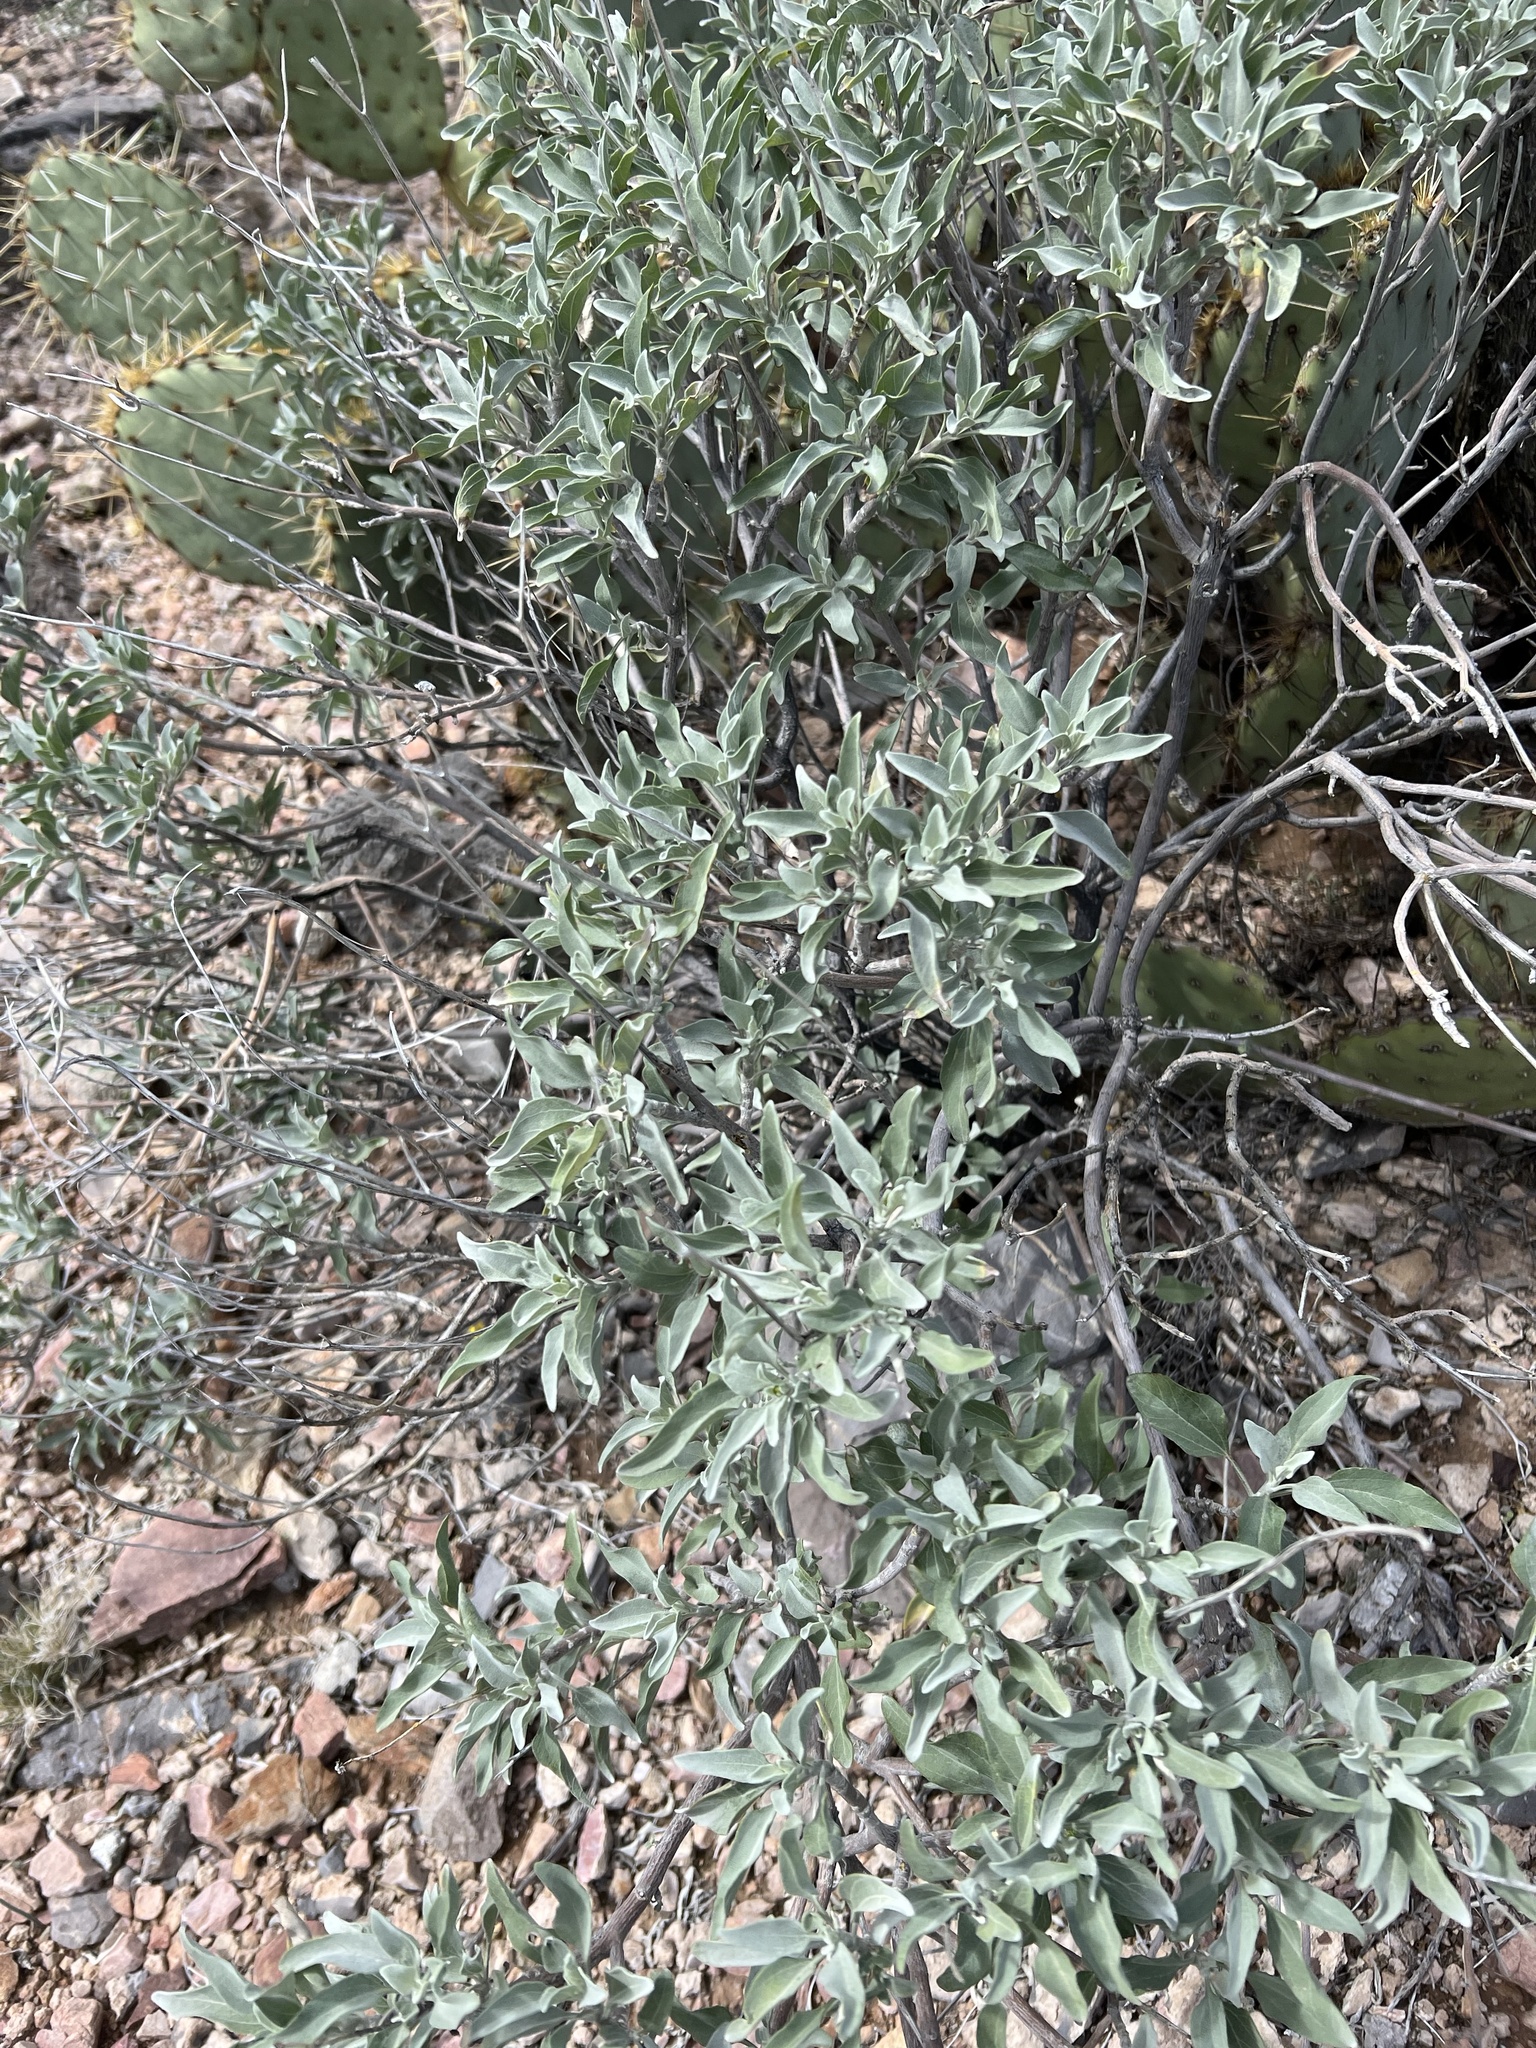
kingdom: Plantae
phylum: Tracheophyta
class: Magnoliopsida
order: Asterales
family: Asteraceae
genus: Ambrosia
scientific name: Ambrosia deltoidea
